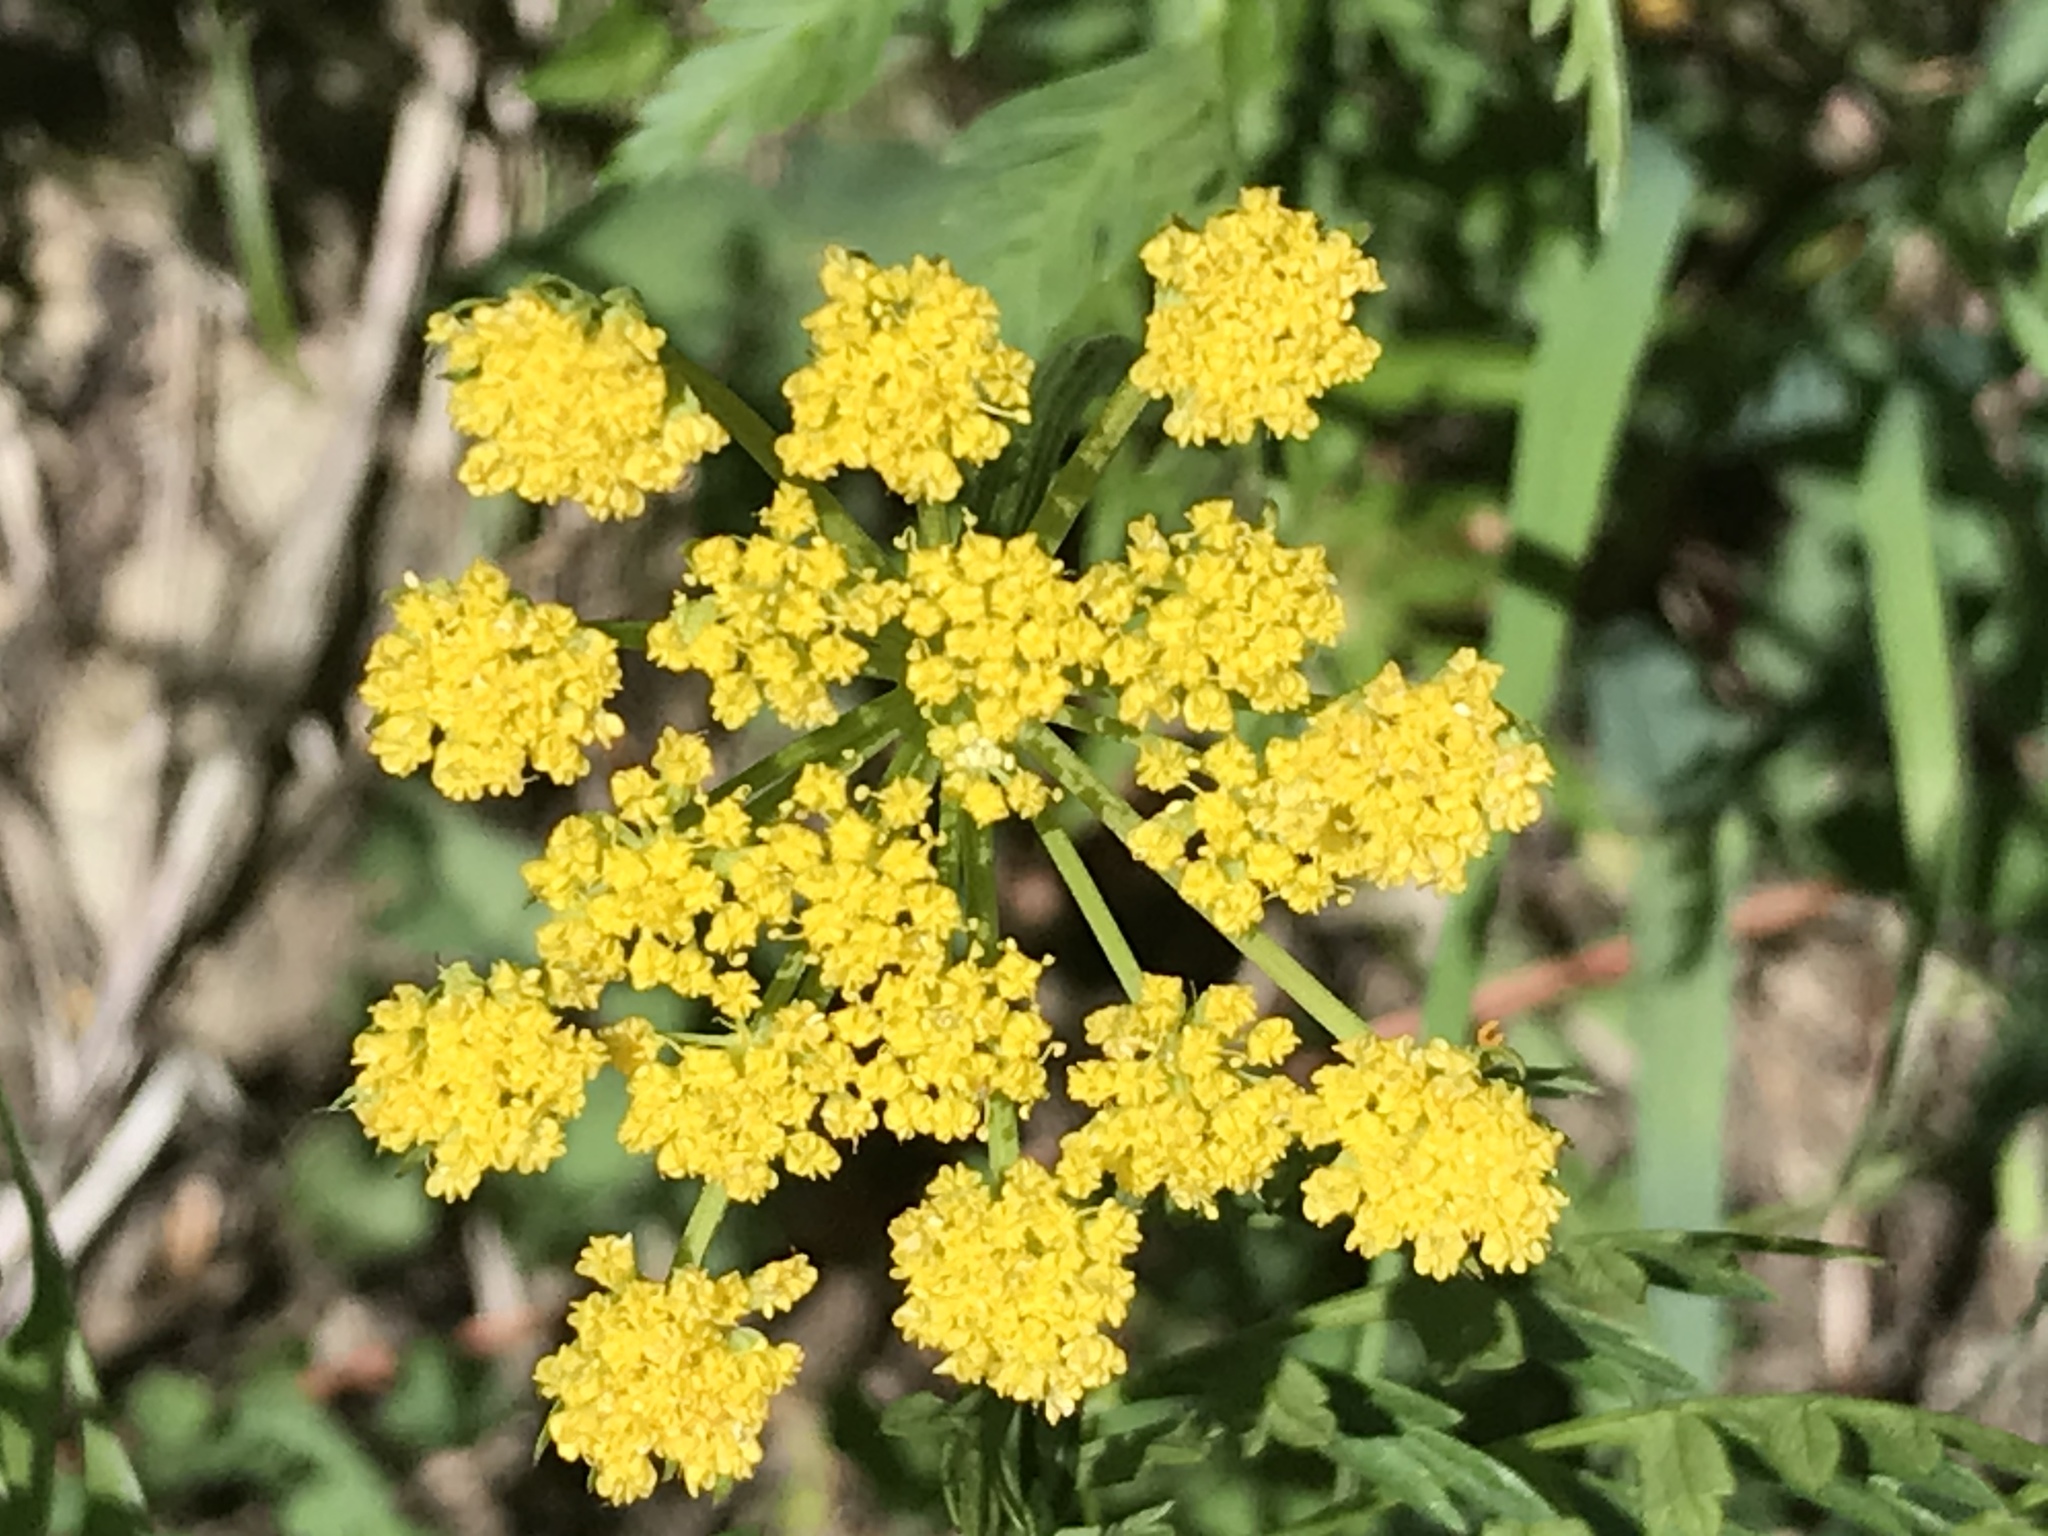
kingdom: Plantae
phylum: Tracheophyta
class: Magnoliopsida
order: Apiales
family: Apiaceae
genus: Cymopterus
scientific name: Cymopterus lemmonii
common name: Lemmon's spring-parsley
